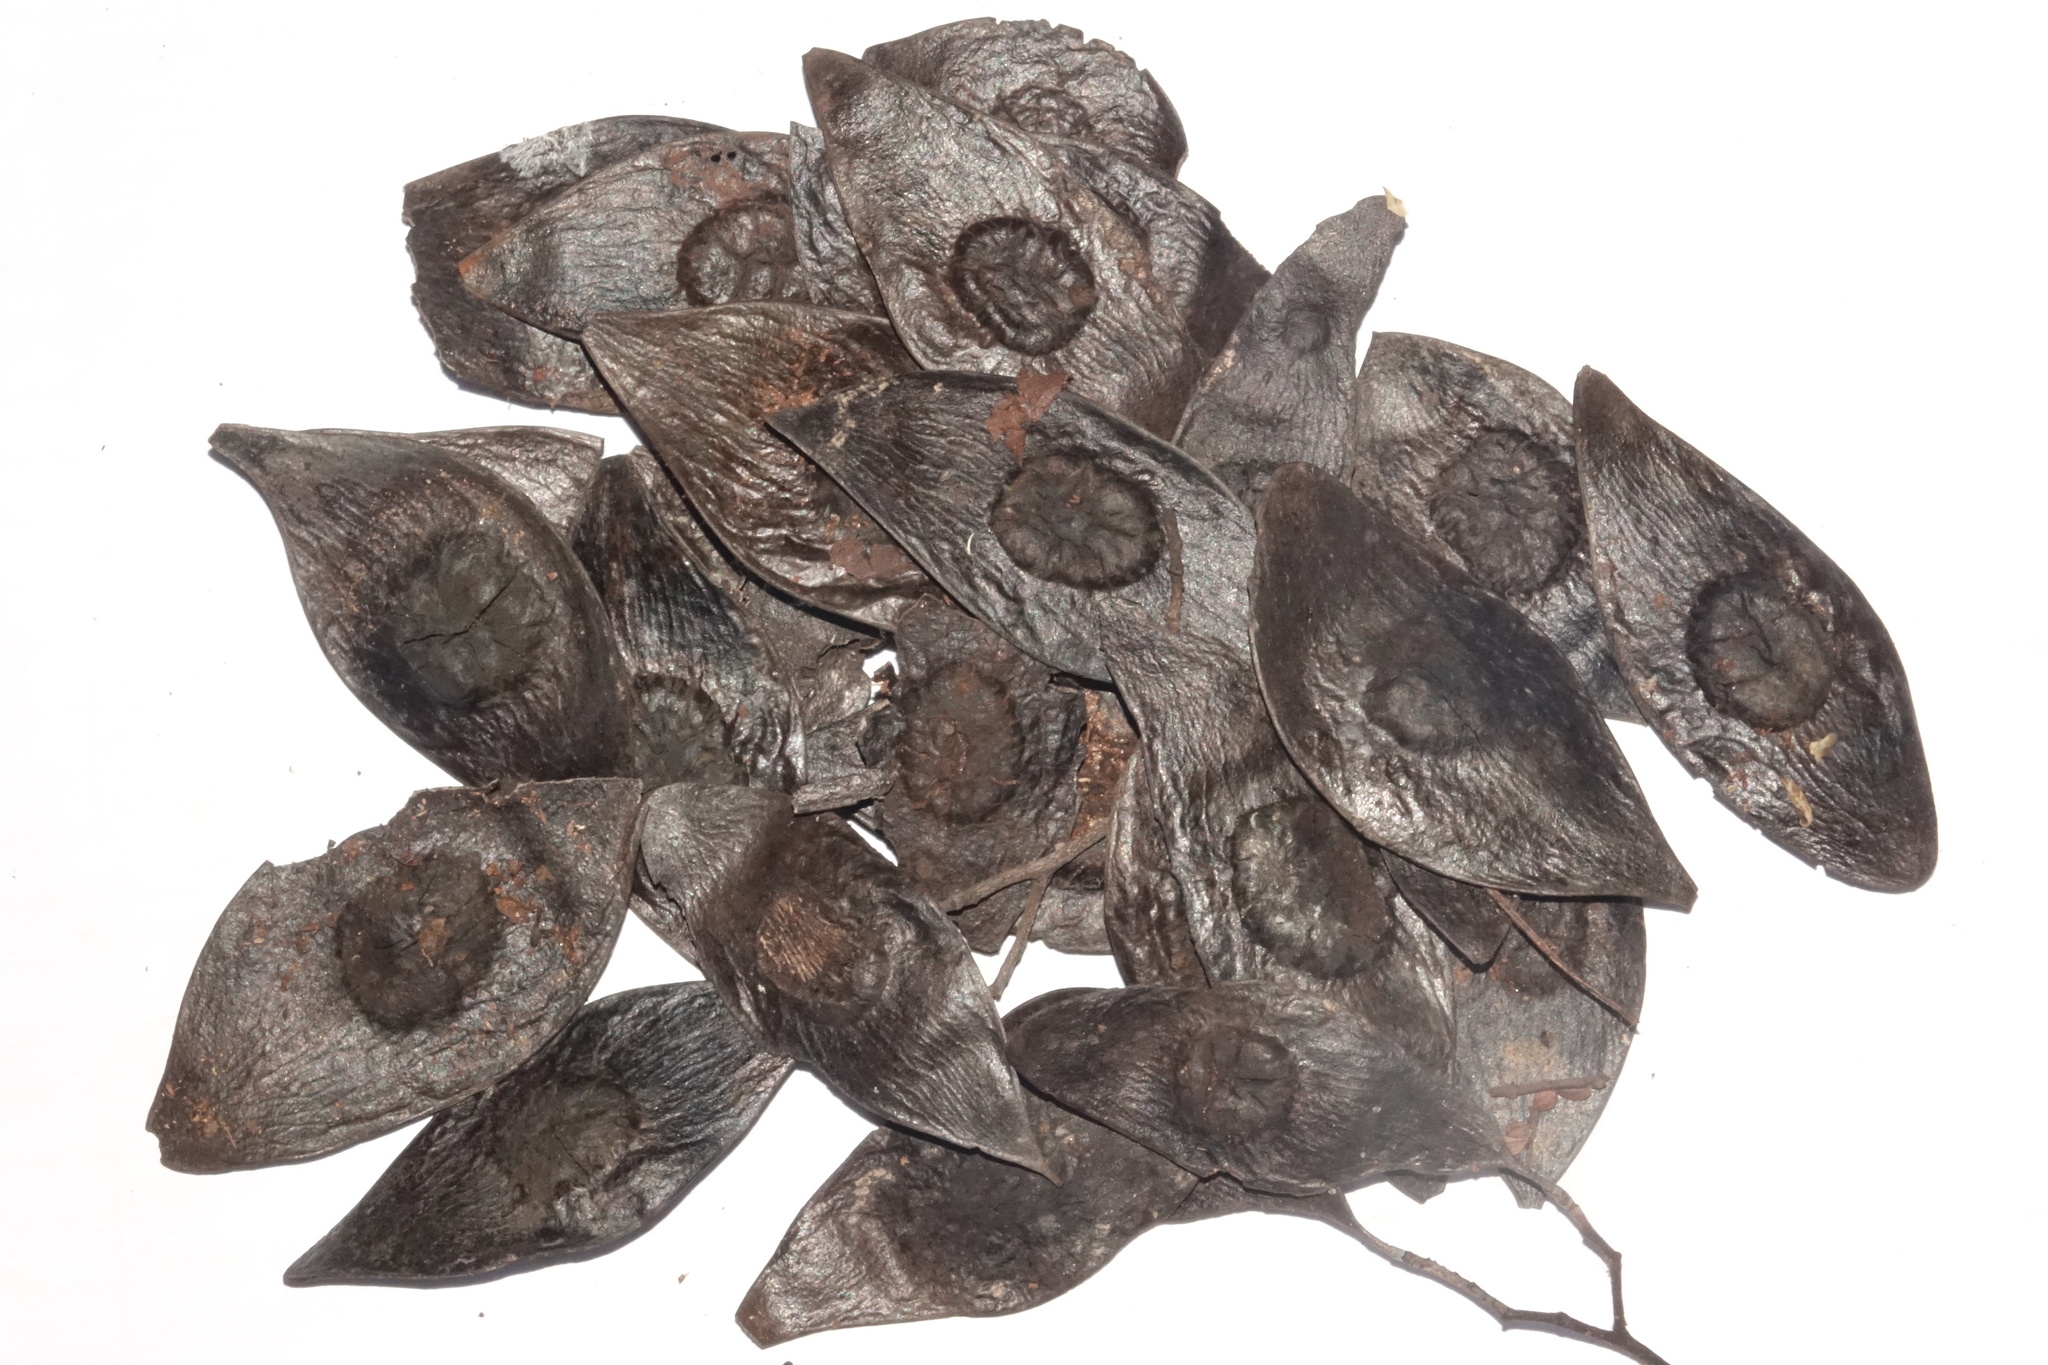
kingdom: Plantae
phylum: Tracheophyta
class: Magnoliopsida
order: Fabales
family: Fabaceae
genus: Dalbergia
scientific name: Dalbergia purpurascens
